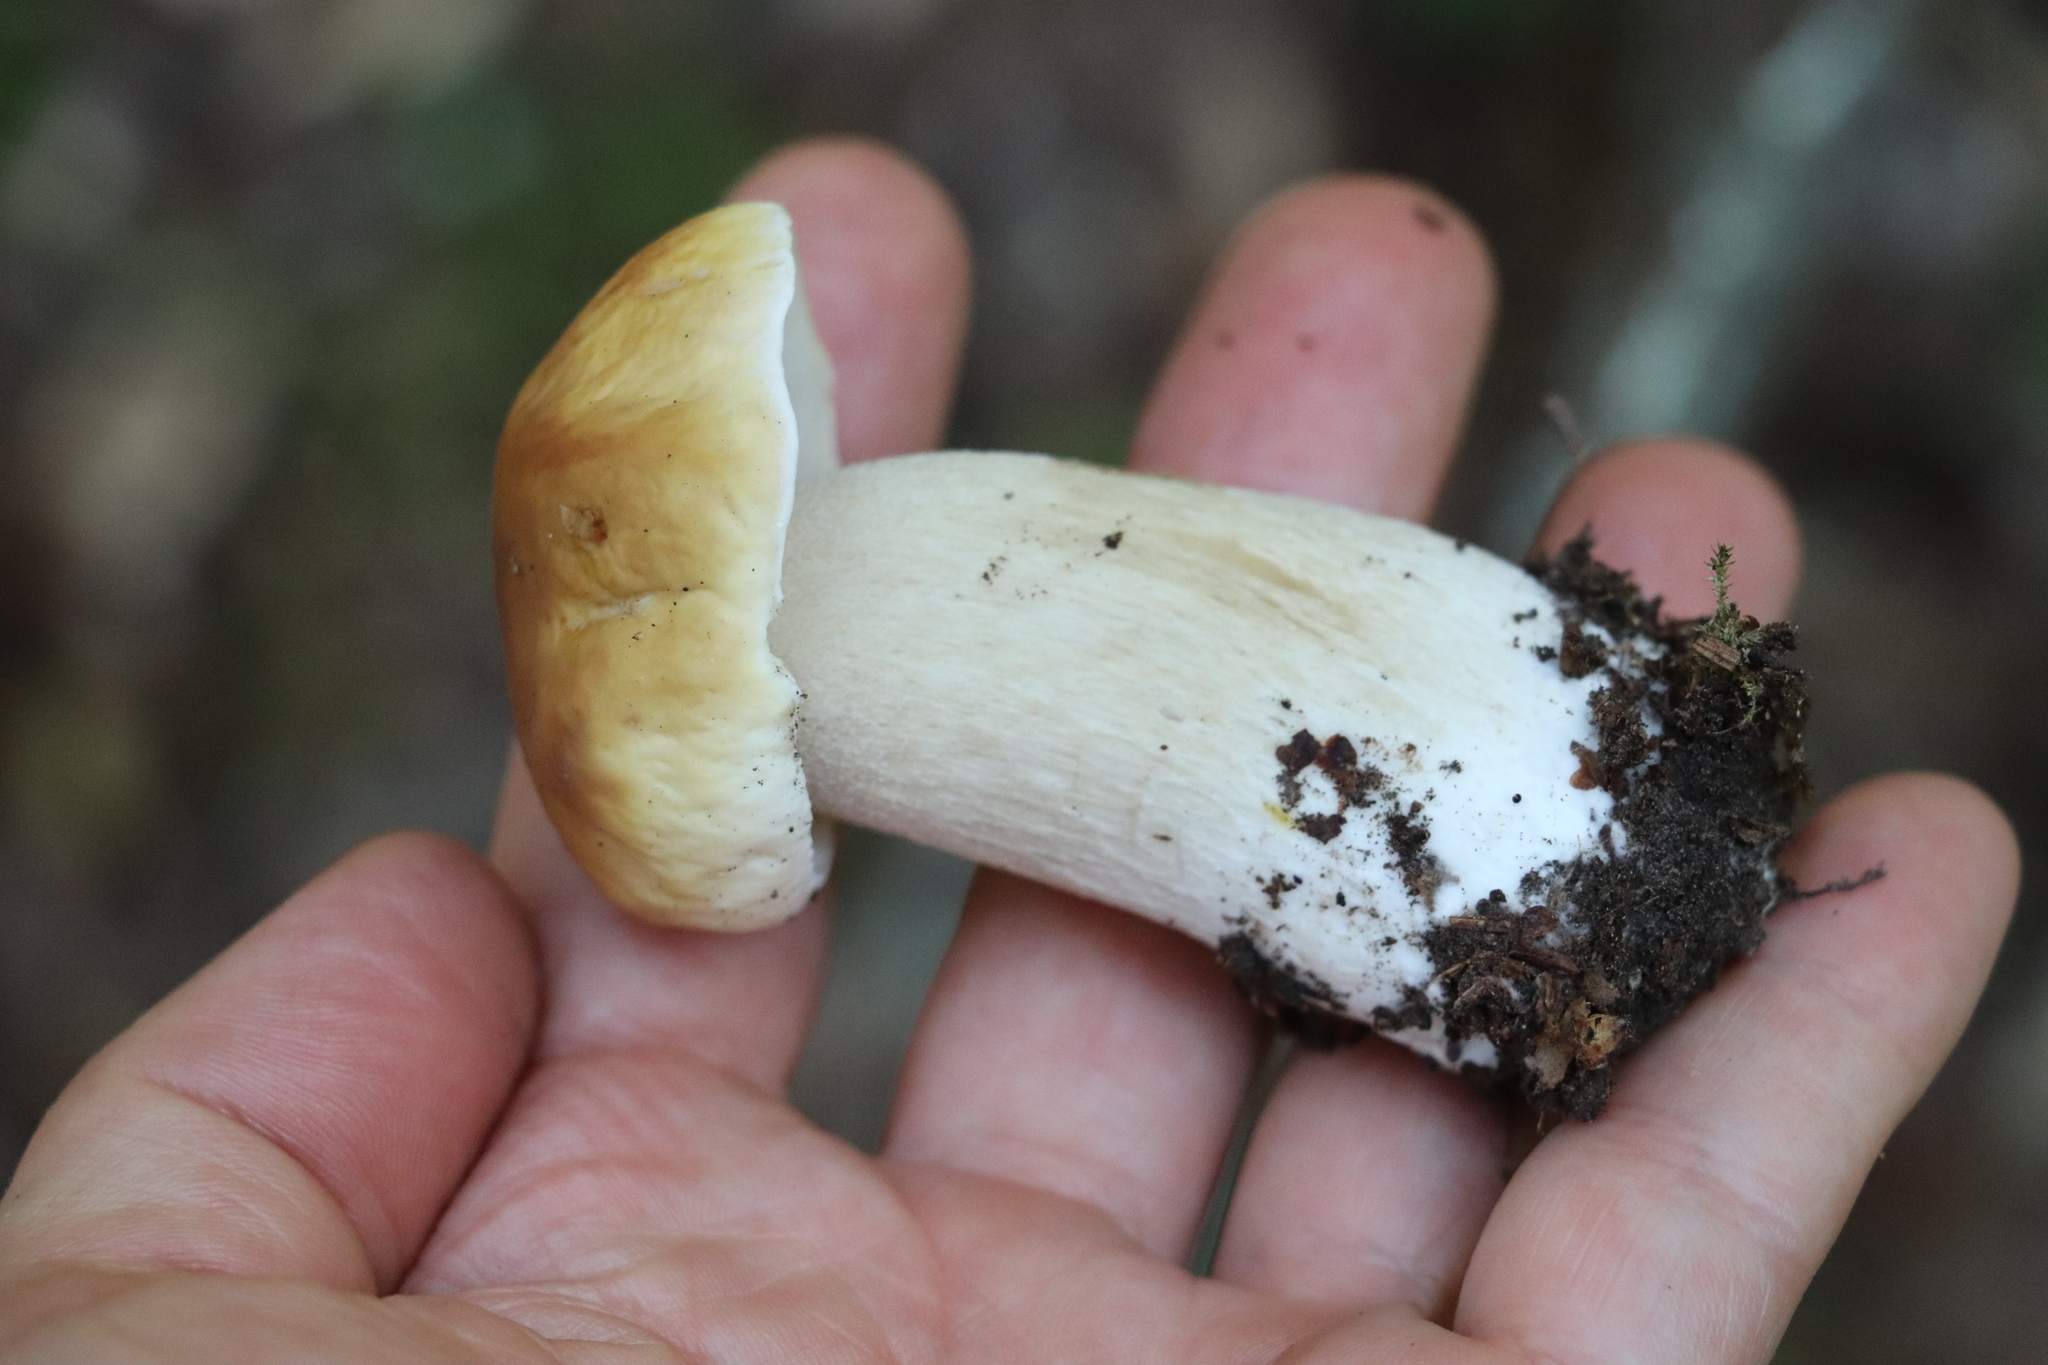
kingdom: Fungi
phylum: Basidiomycota
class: Agaricomycetes
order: Boletales
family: Boletaceae
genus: Boletus
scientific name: Boletus edulis
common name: Cep
